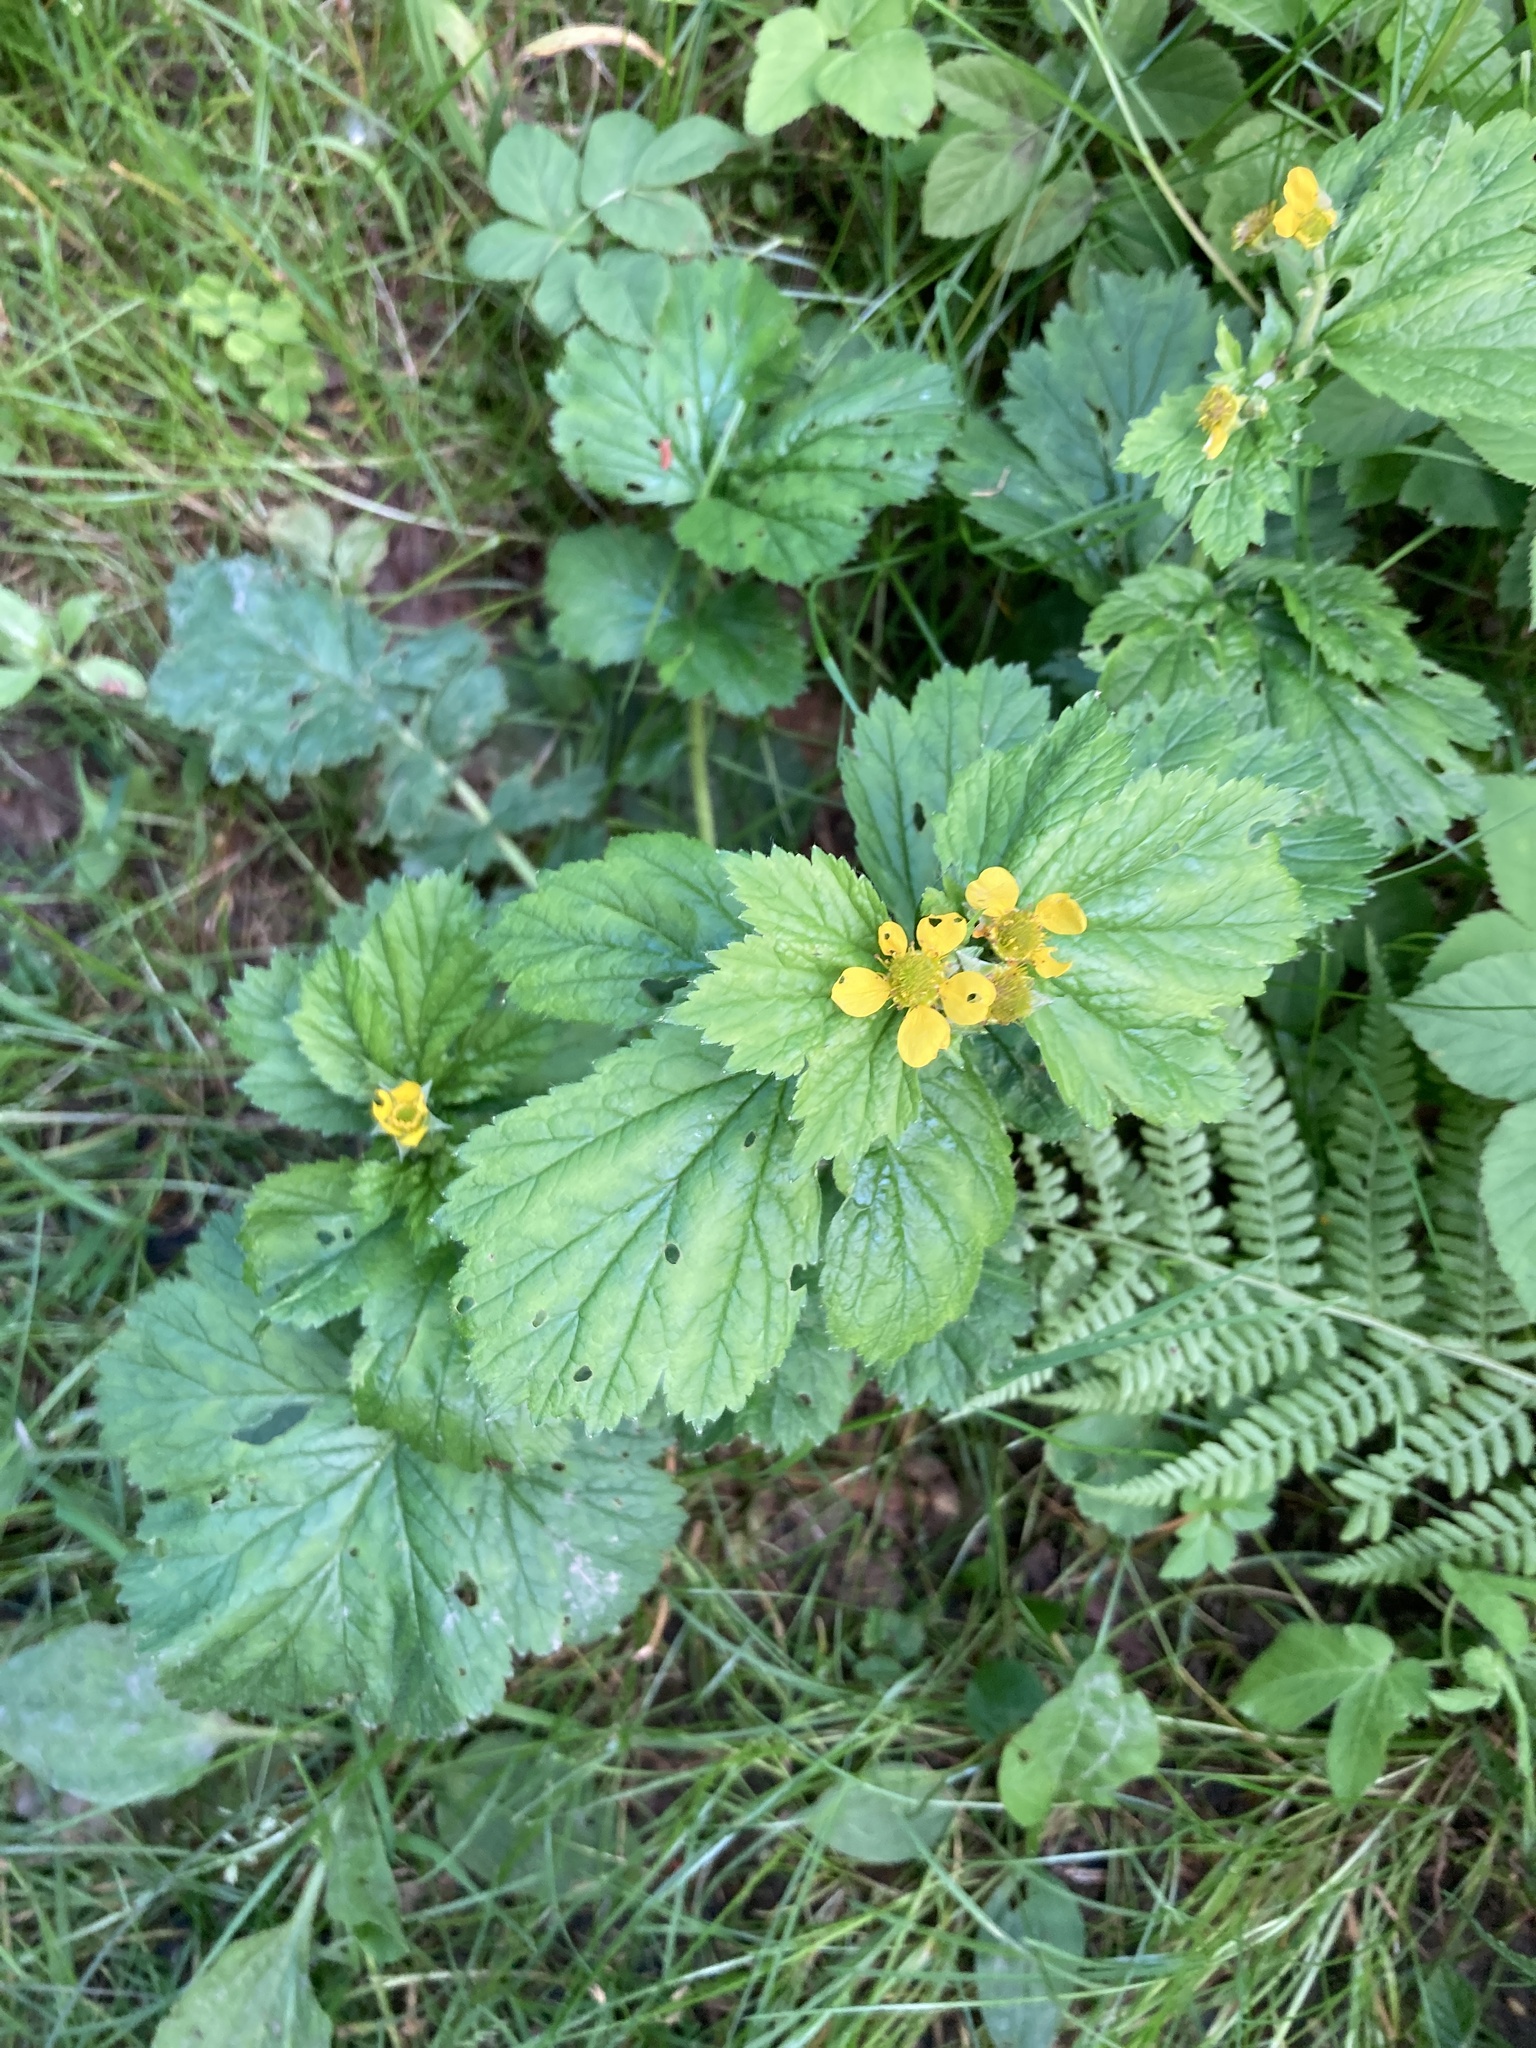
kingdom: Plantae
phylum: Tracheophyta
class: Magnoliopsida
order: Rosales
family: Rosaceae
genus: Geum
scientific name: Geum macrophyllum
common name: Large-leaved avens
